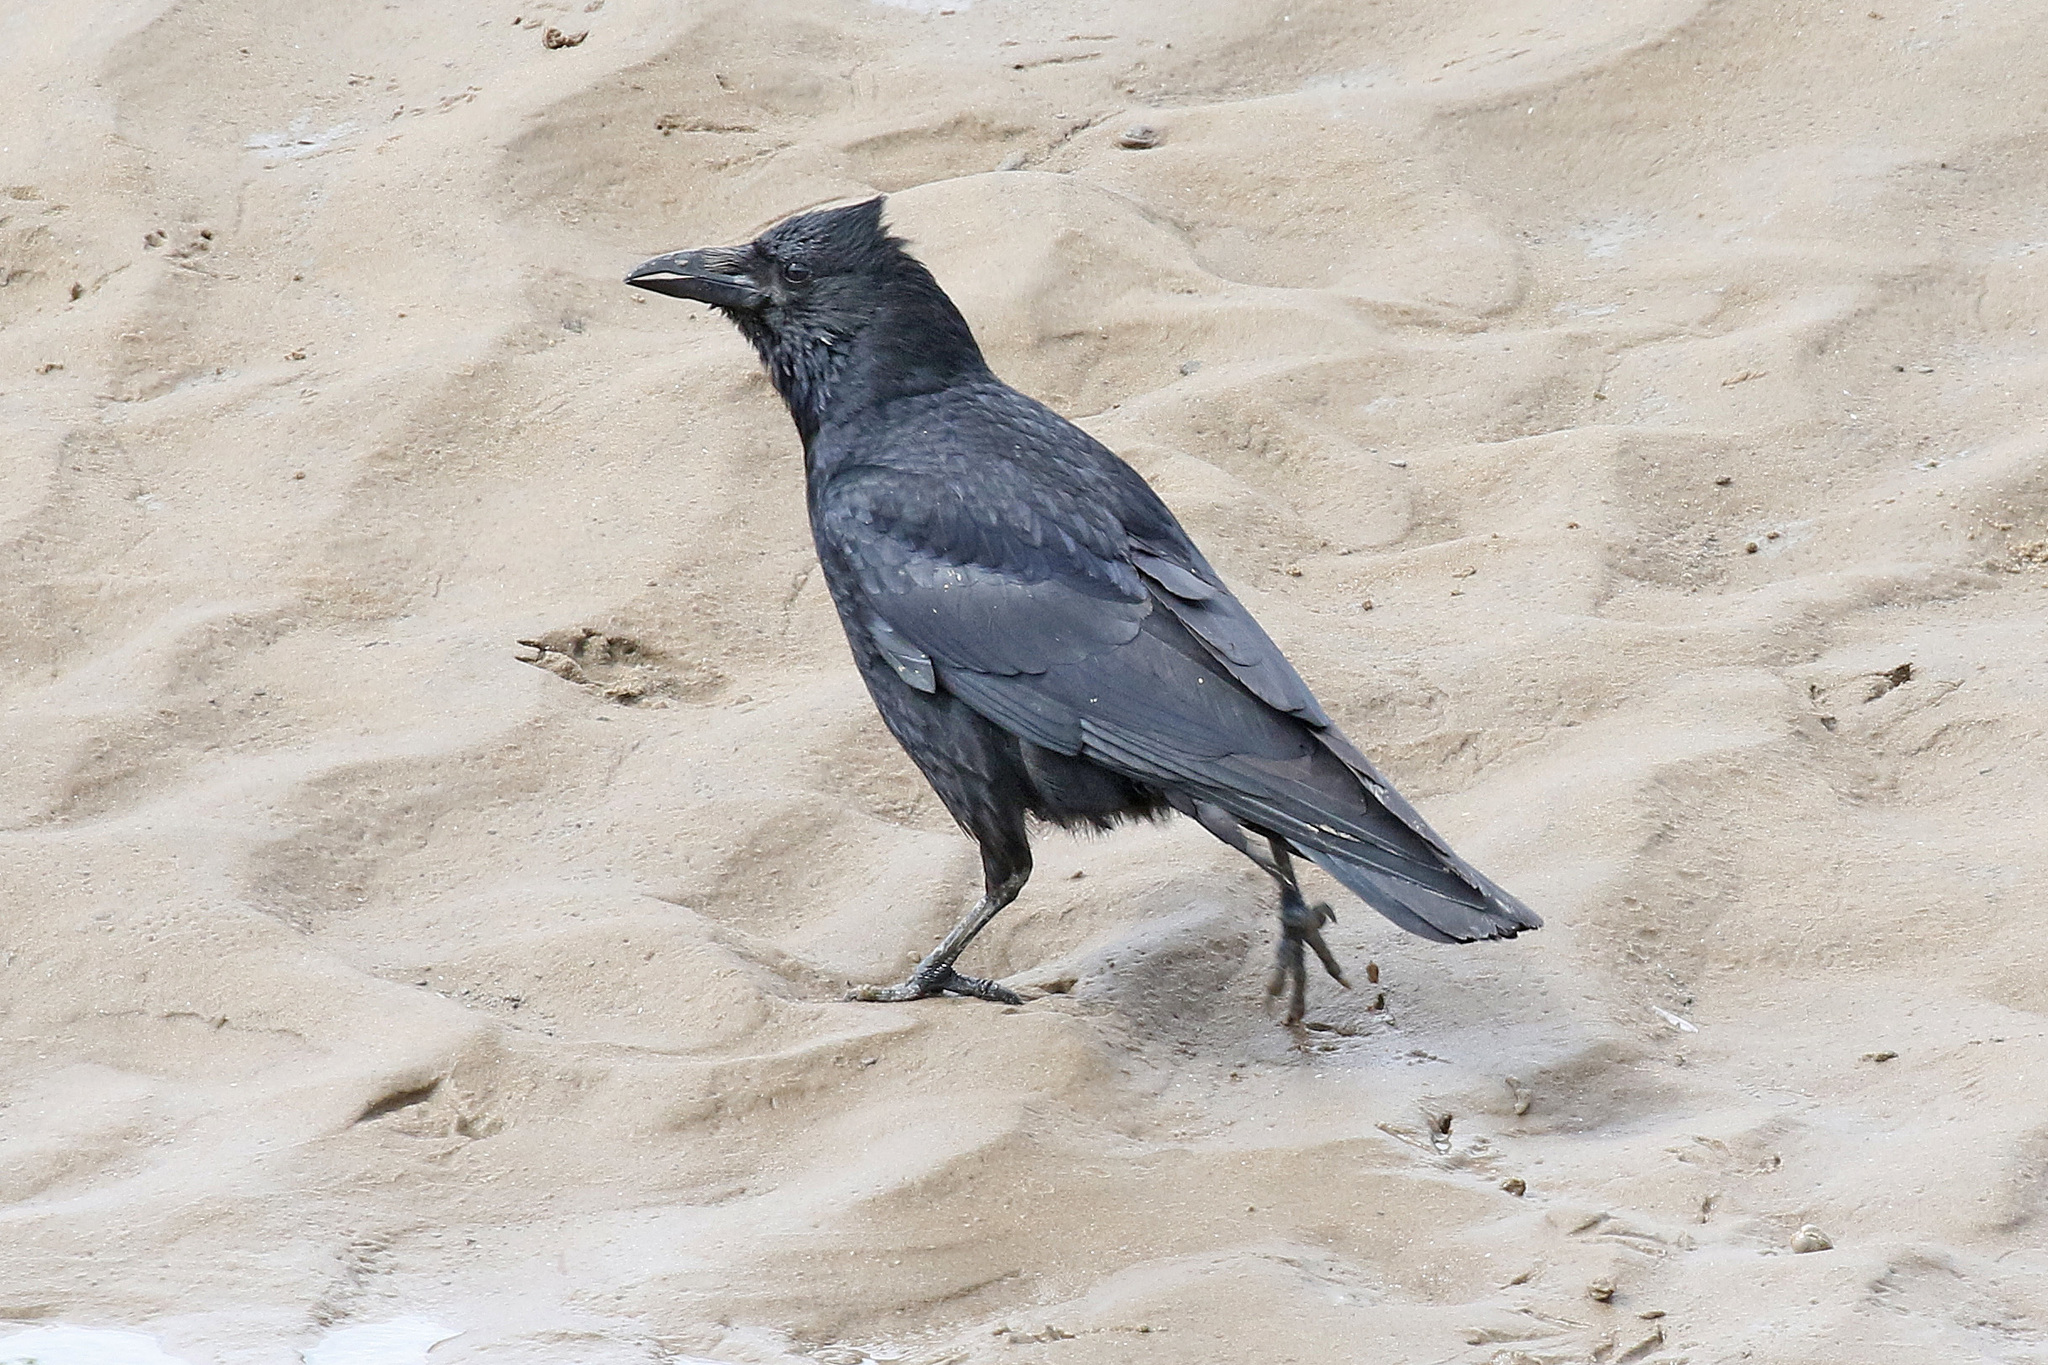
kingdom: Animalia
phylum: Chordata
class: Aves
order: Passeriformes
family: Corvidae
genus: Corvus
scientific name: Corvus corone
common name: Carrion crow
